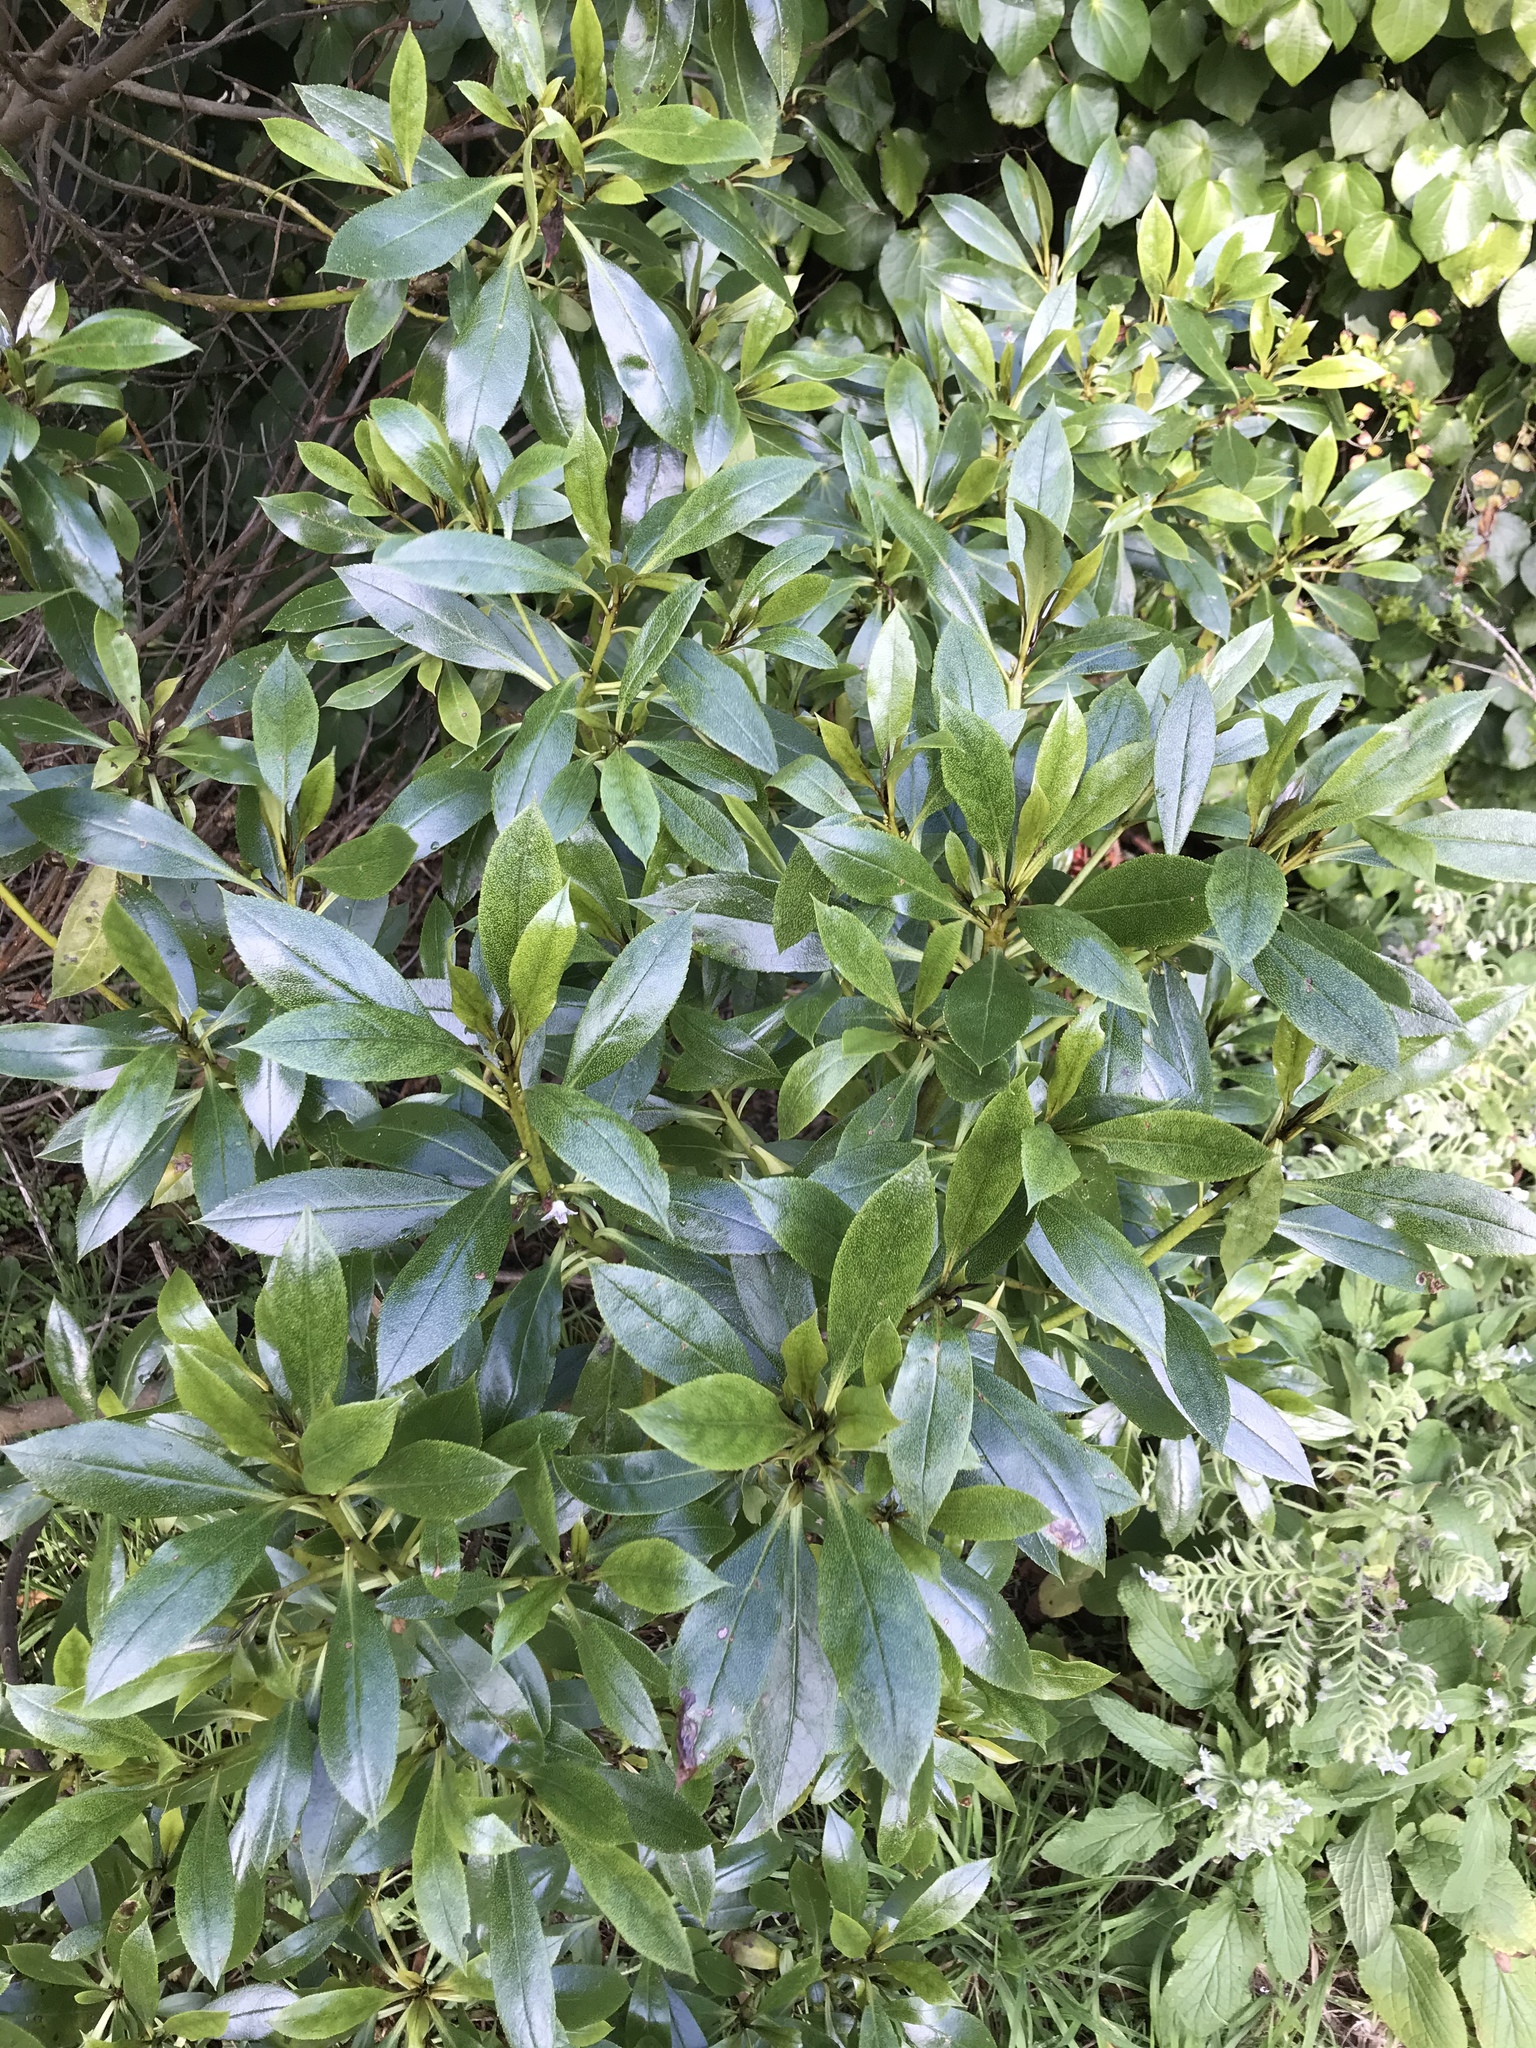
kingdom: Plantae
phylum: Tracheophyta
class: Magnoliopsida
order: Lamiales
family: Scrophulariaceae
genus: Myoporum
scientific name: Myoporum laetum
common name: Ngaio tree
